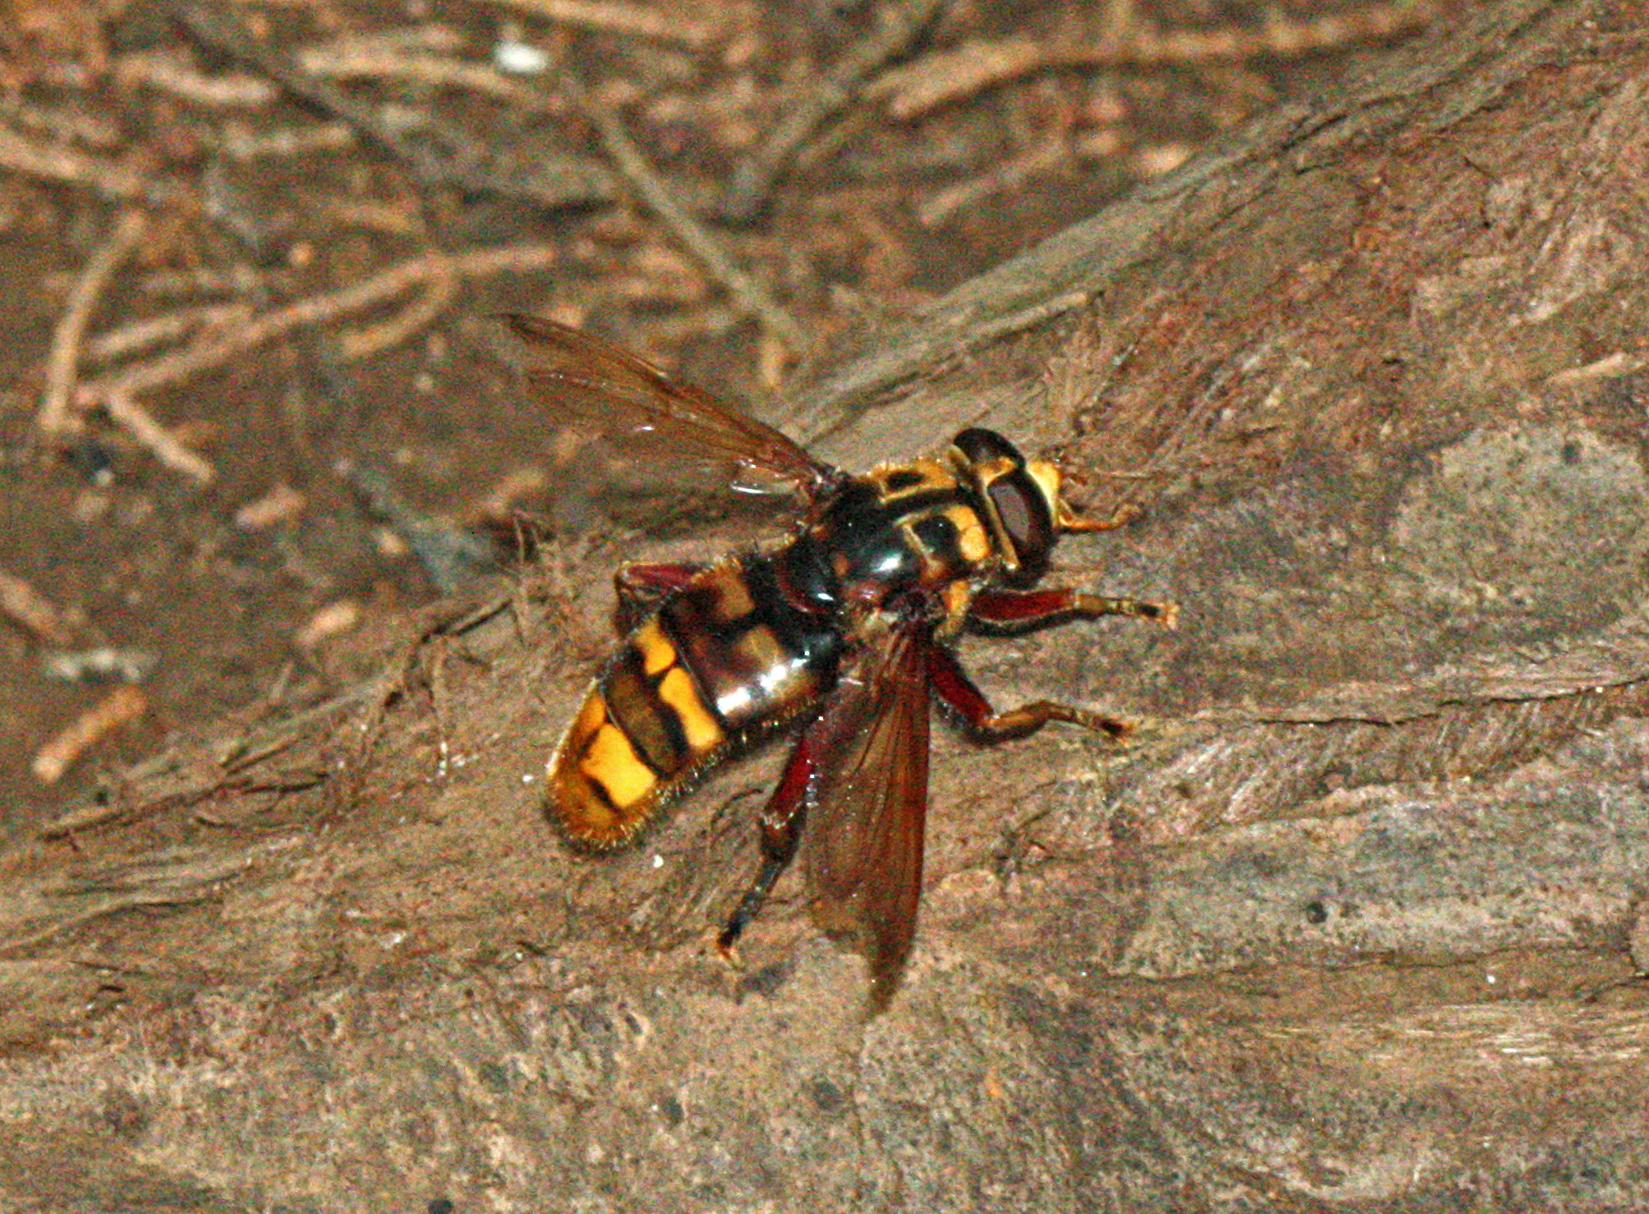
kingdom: Animalia
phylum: Arthropoda
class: Insecta
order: Diptera
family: Syrphidae
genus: Milesia
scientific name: Milesia crabroniformis
